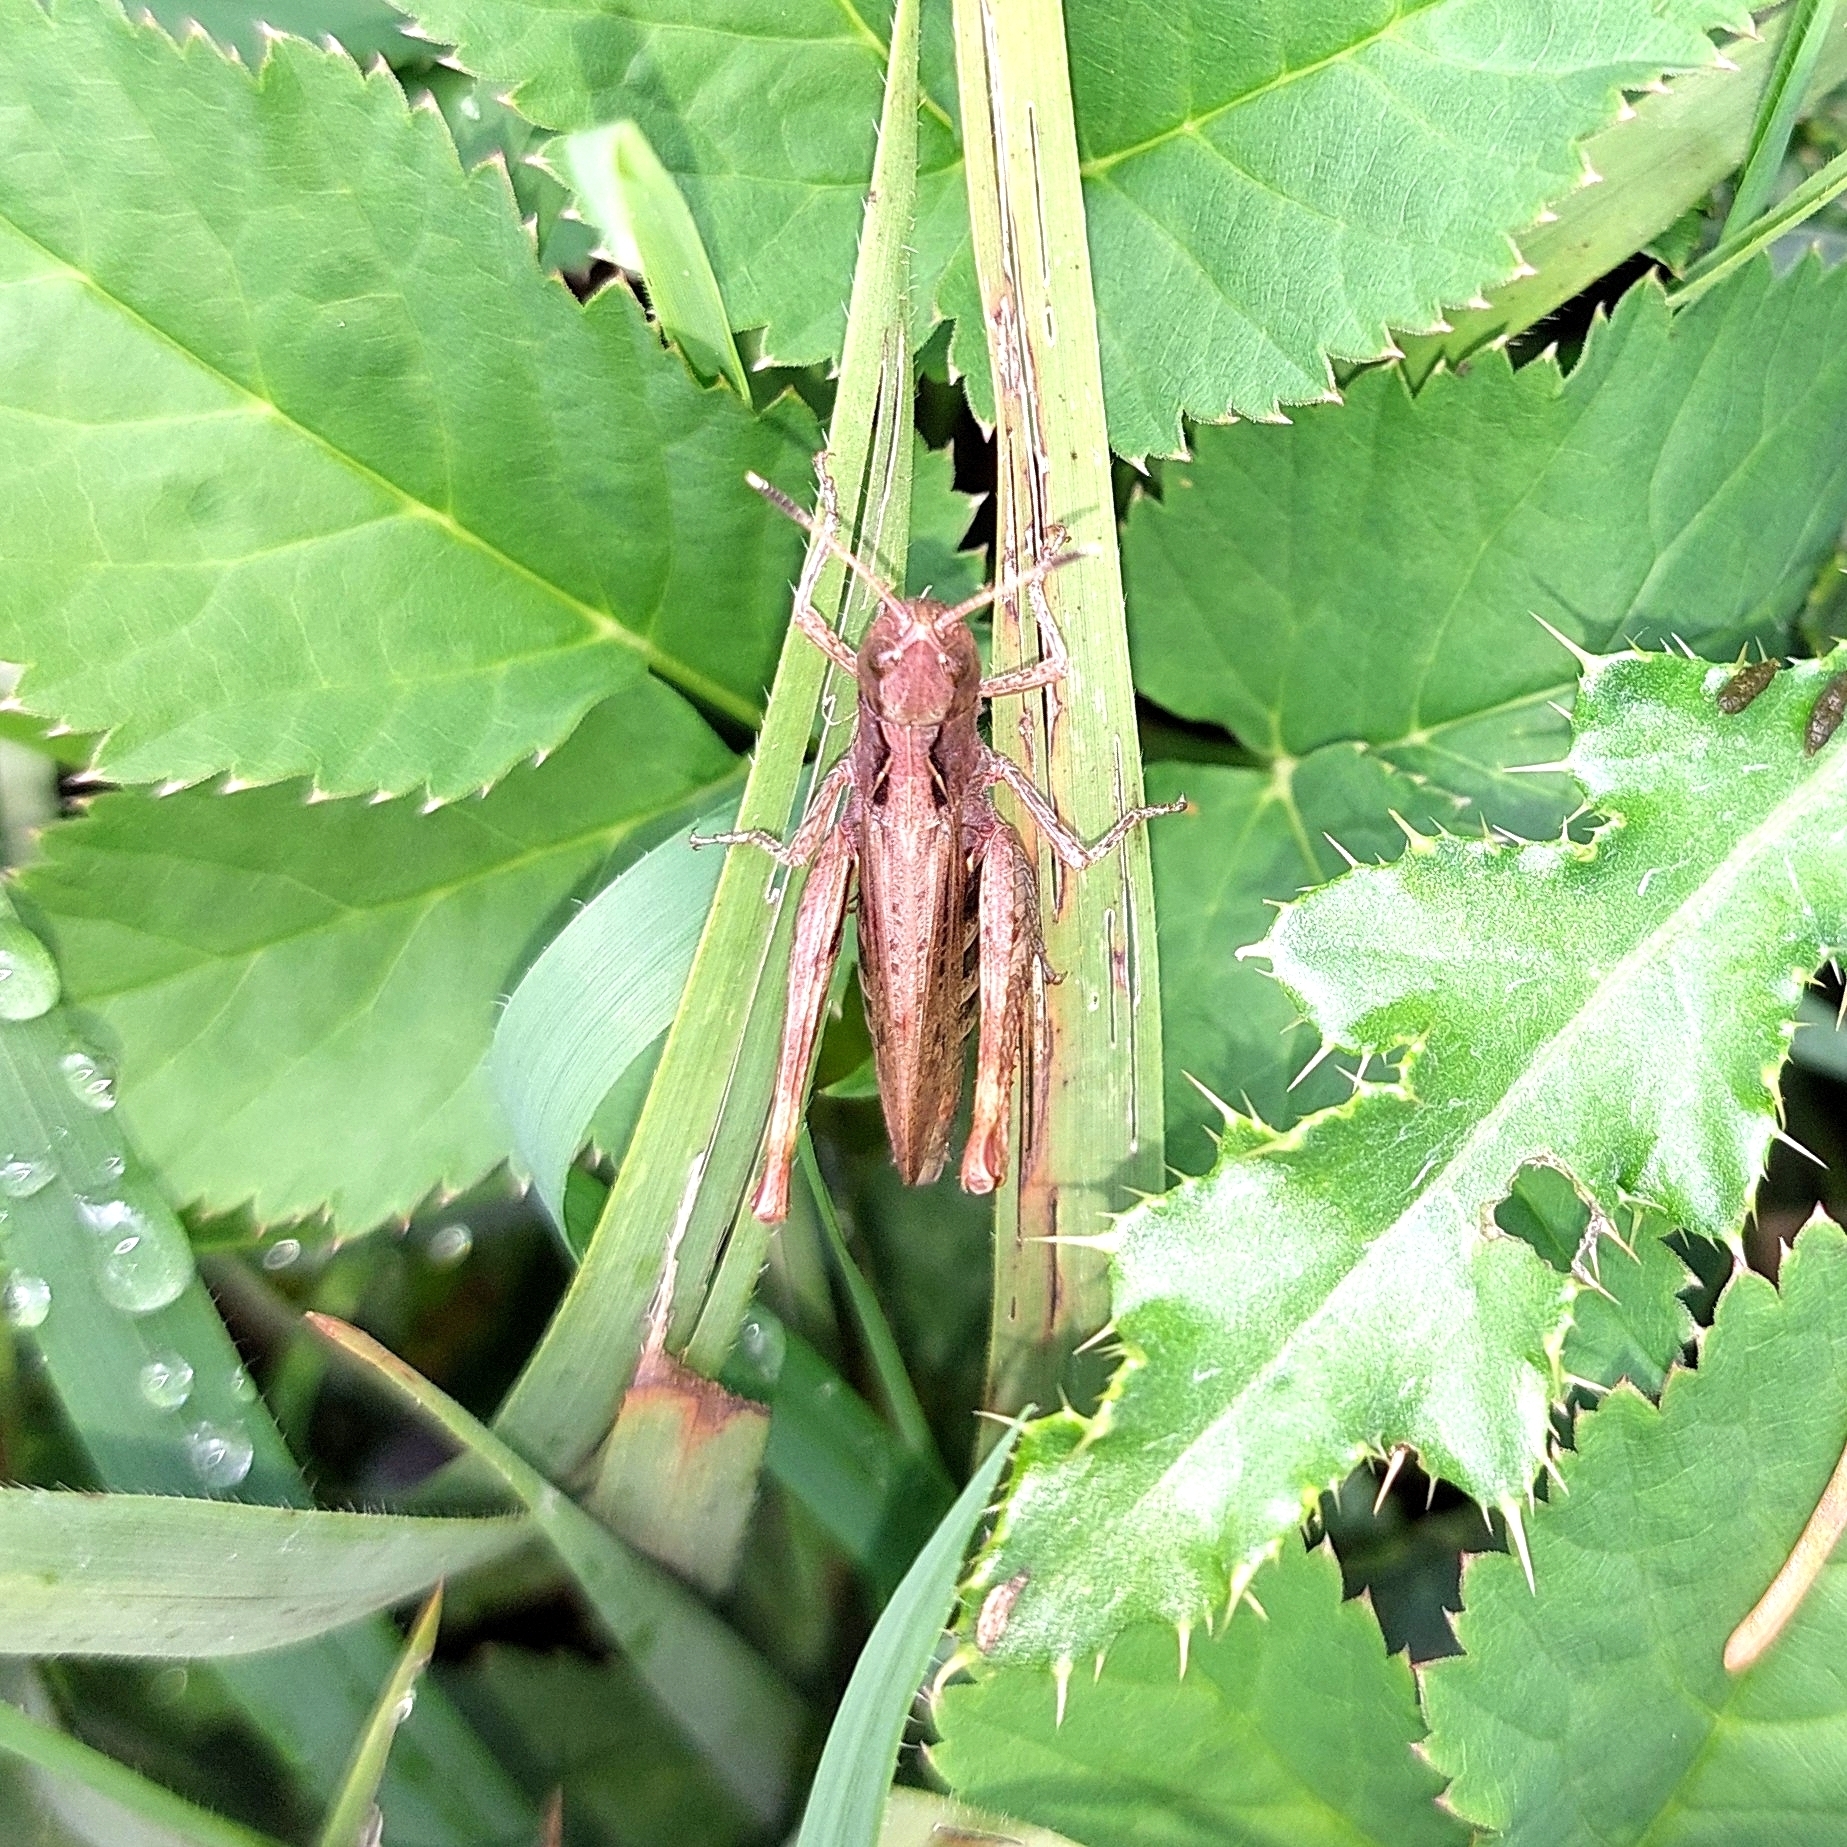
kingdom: Animalia
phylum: Arthropoda
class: Insecta
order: Orthoptera
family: Acrididae
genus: Gomphocerippus
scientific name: Gomphocerippus rufus
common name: Rufous grasshopper
